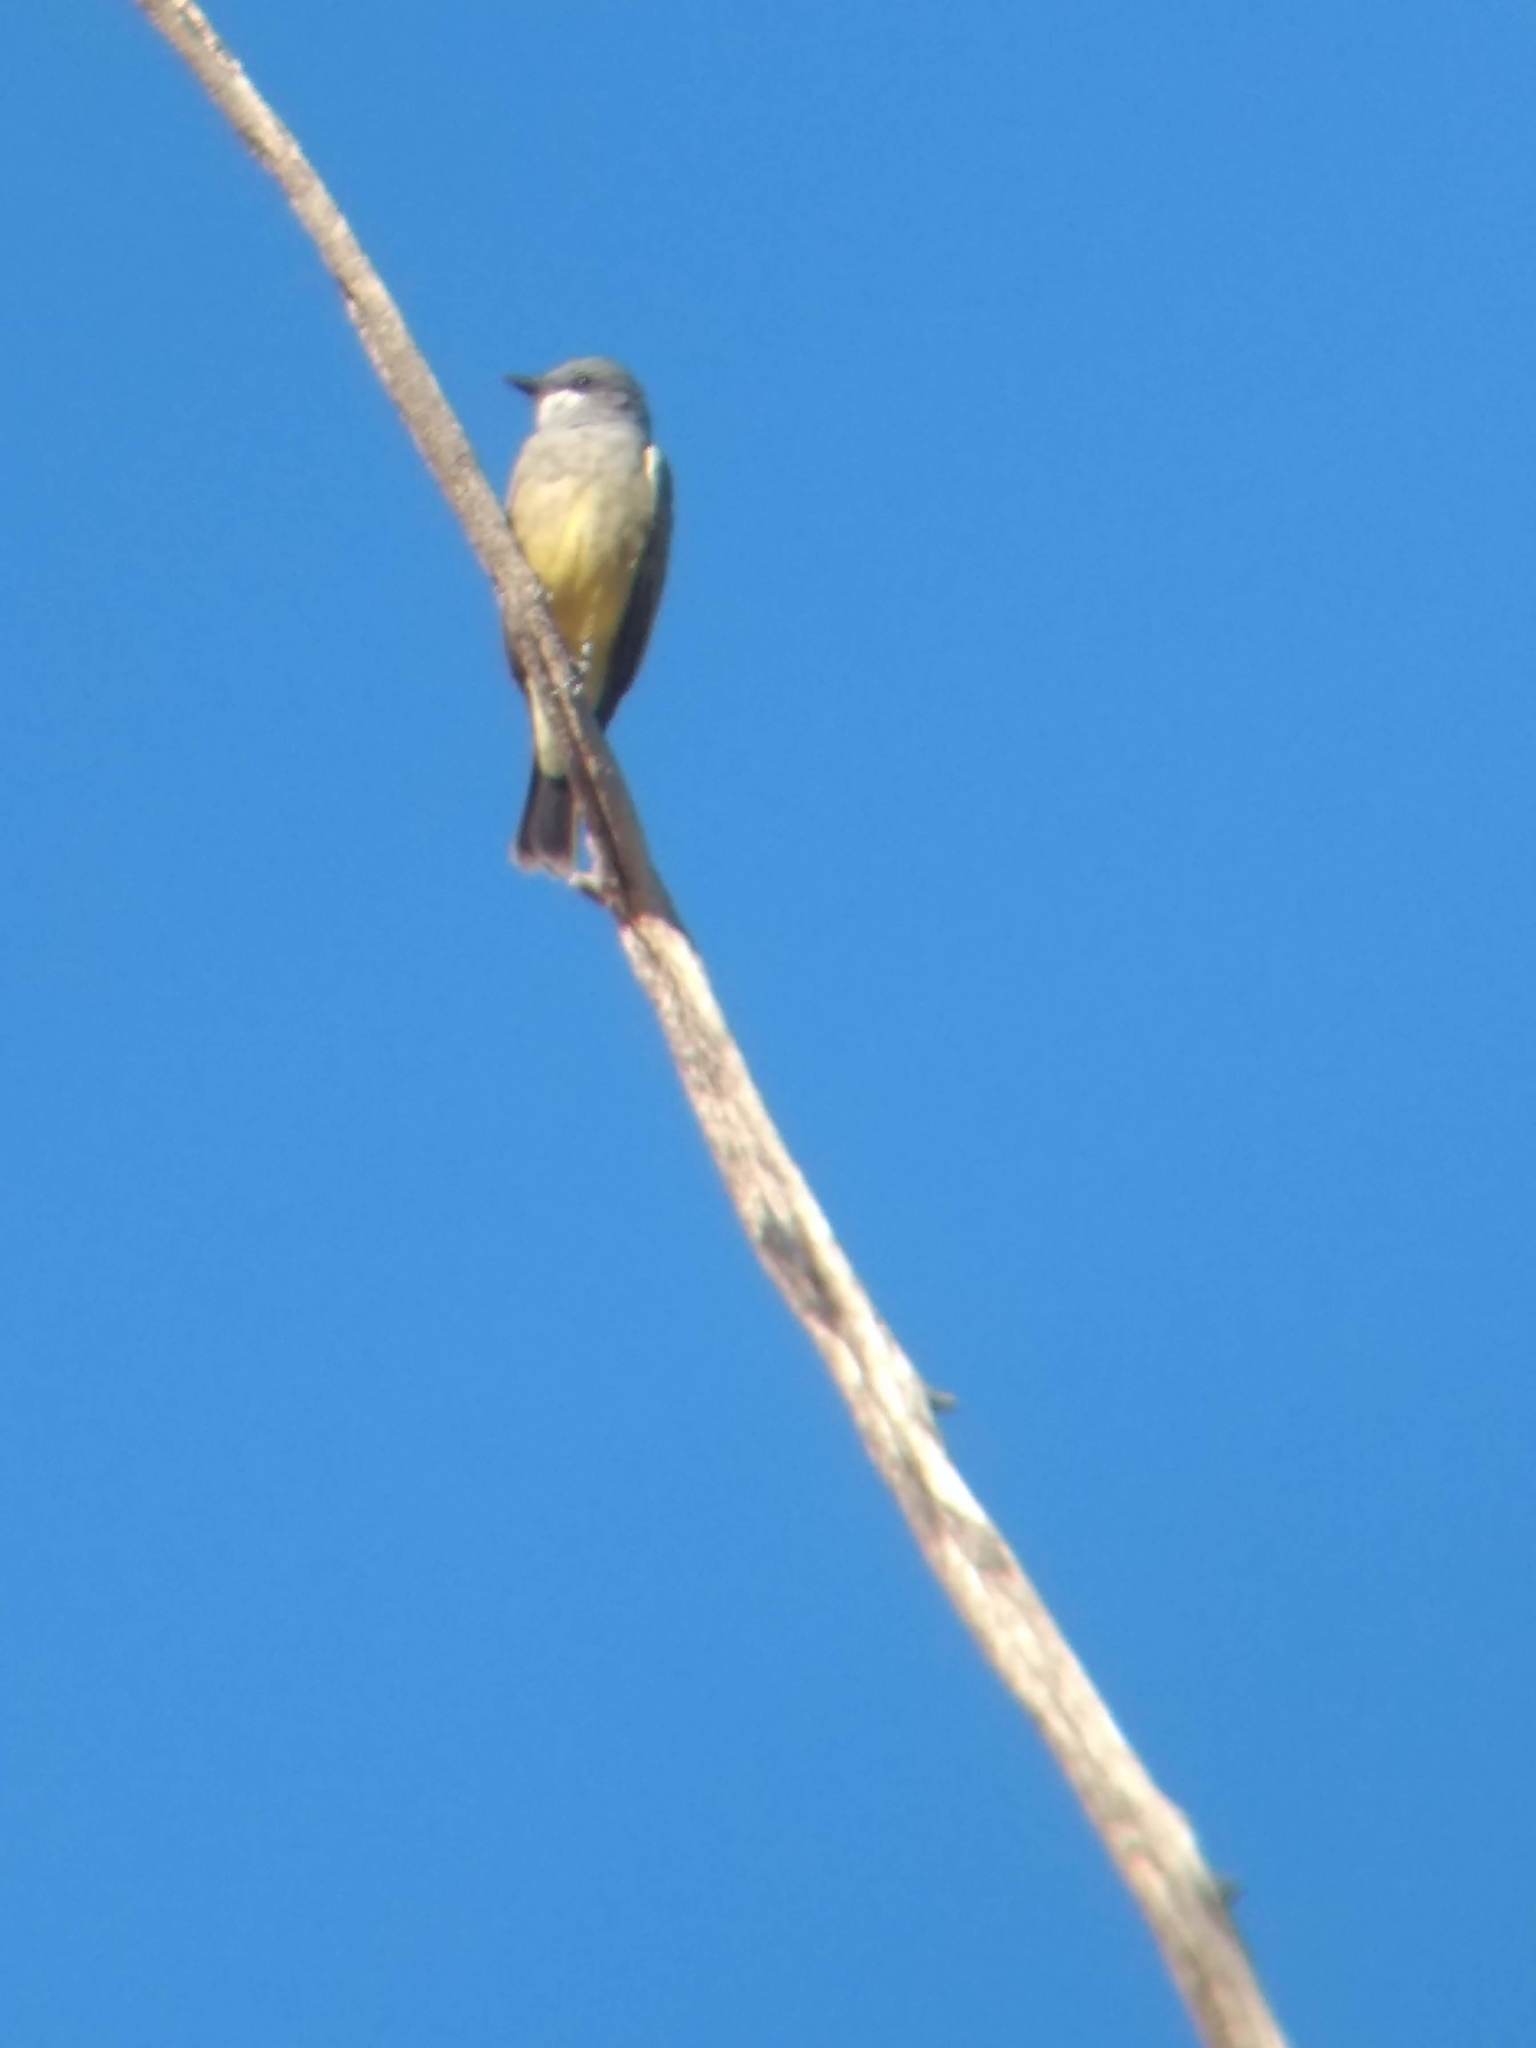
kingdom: Animalia
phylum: Chordata
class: Aves
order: Passeriformes
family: Tyrannidae
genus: Tyrannus
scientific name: Tyrannus vociferans
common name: Cassin's kingbird
